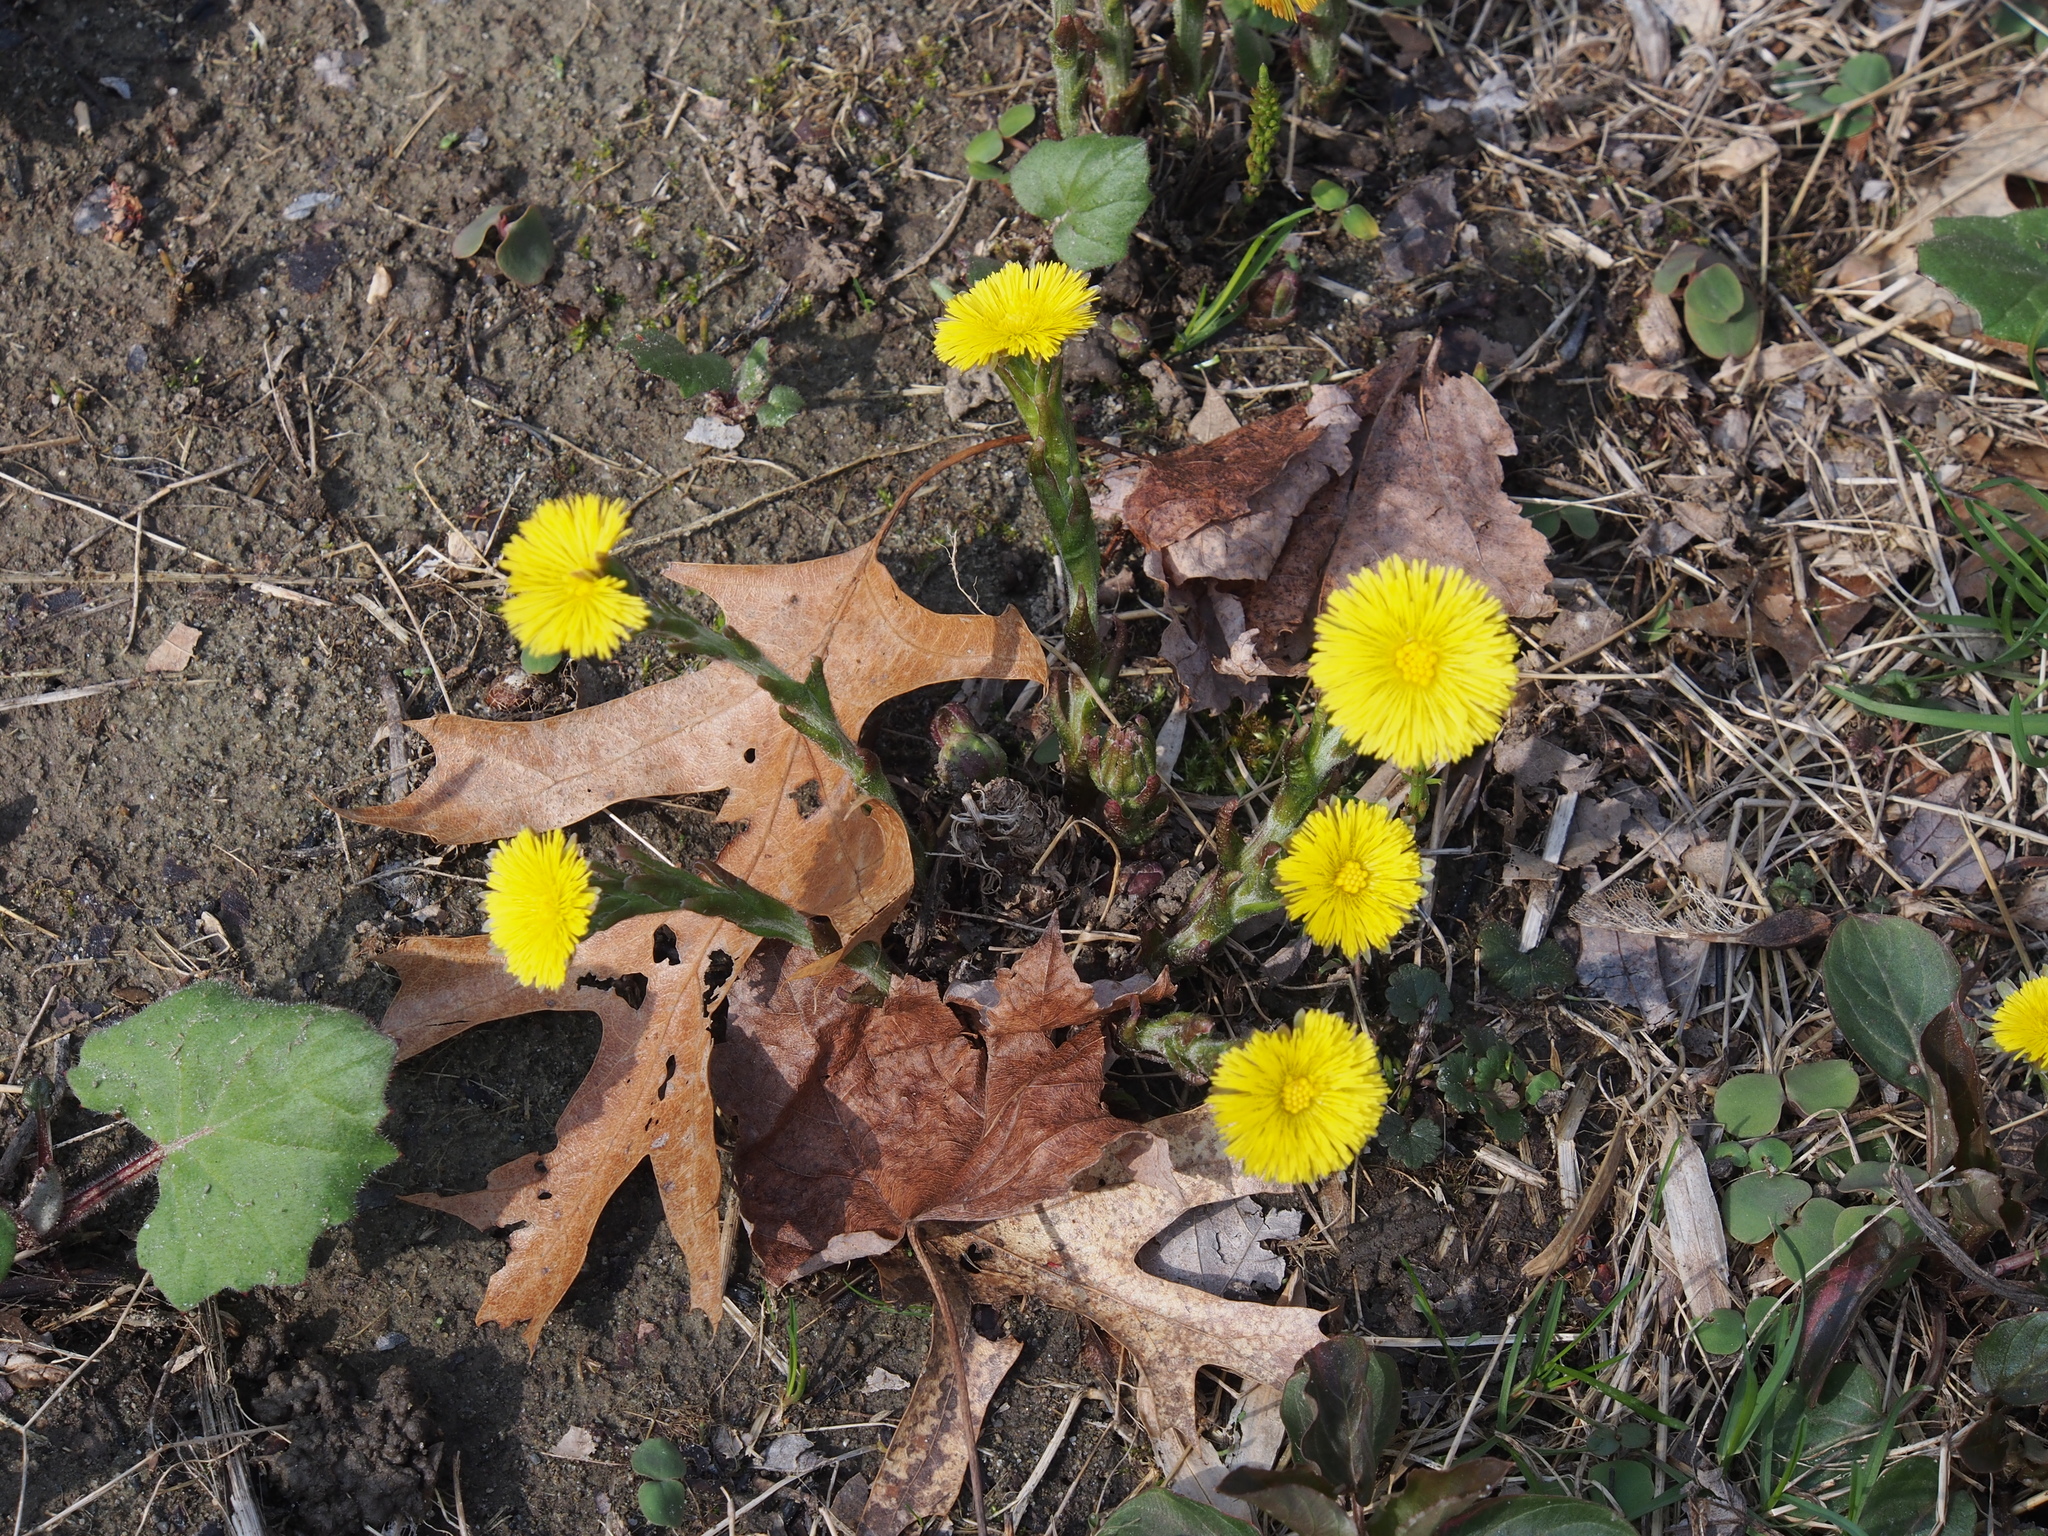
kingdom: Plantae
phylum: Tracheophyta
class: Magnoliopsida
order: Asterales
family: Asteraceae
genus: Tussilago
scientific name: Tussilago farfara
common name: Coltsfoot
